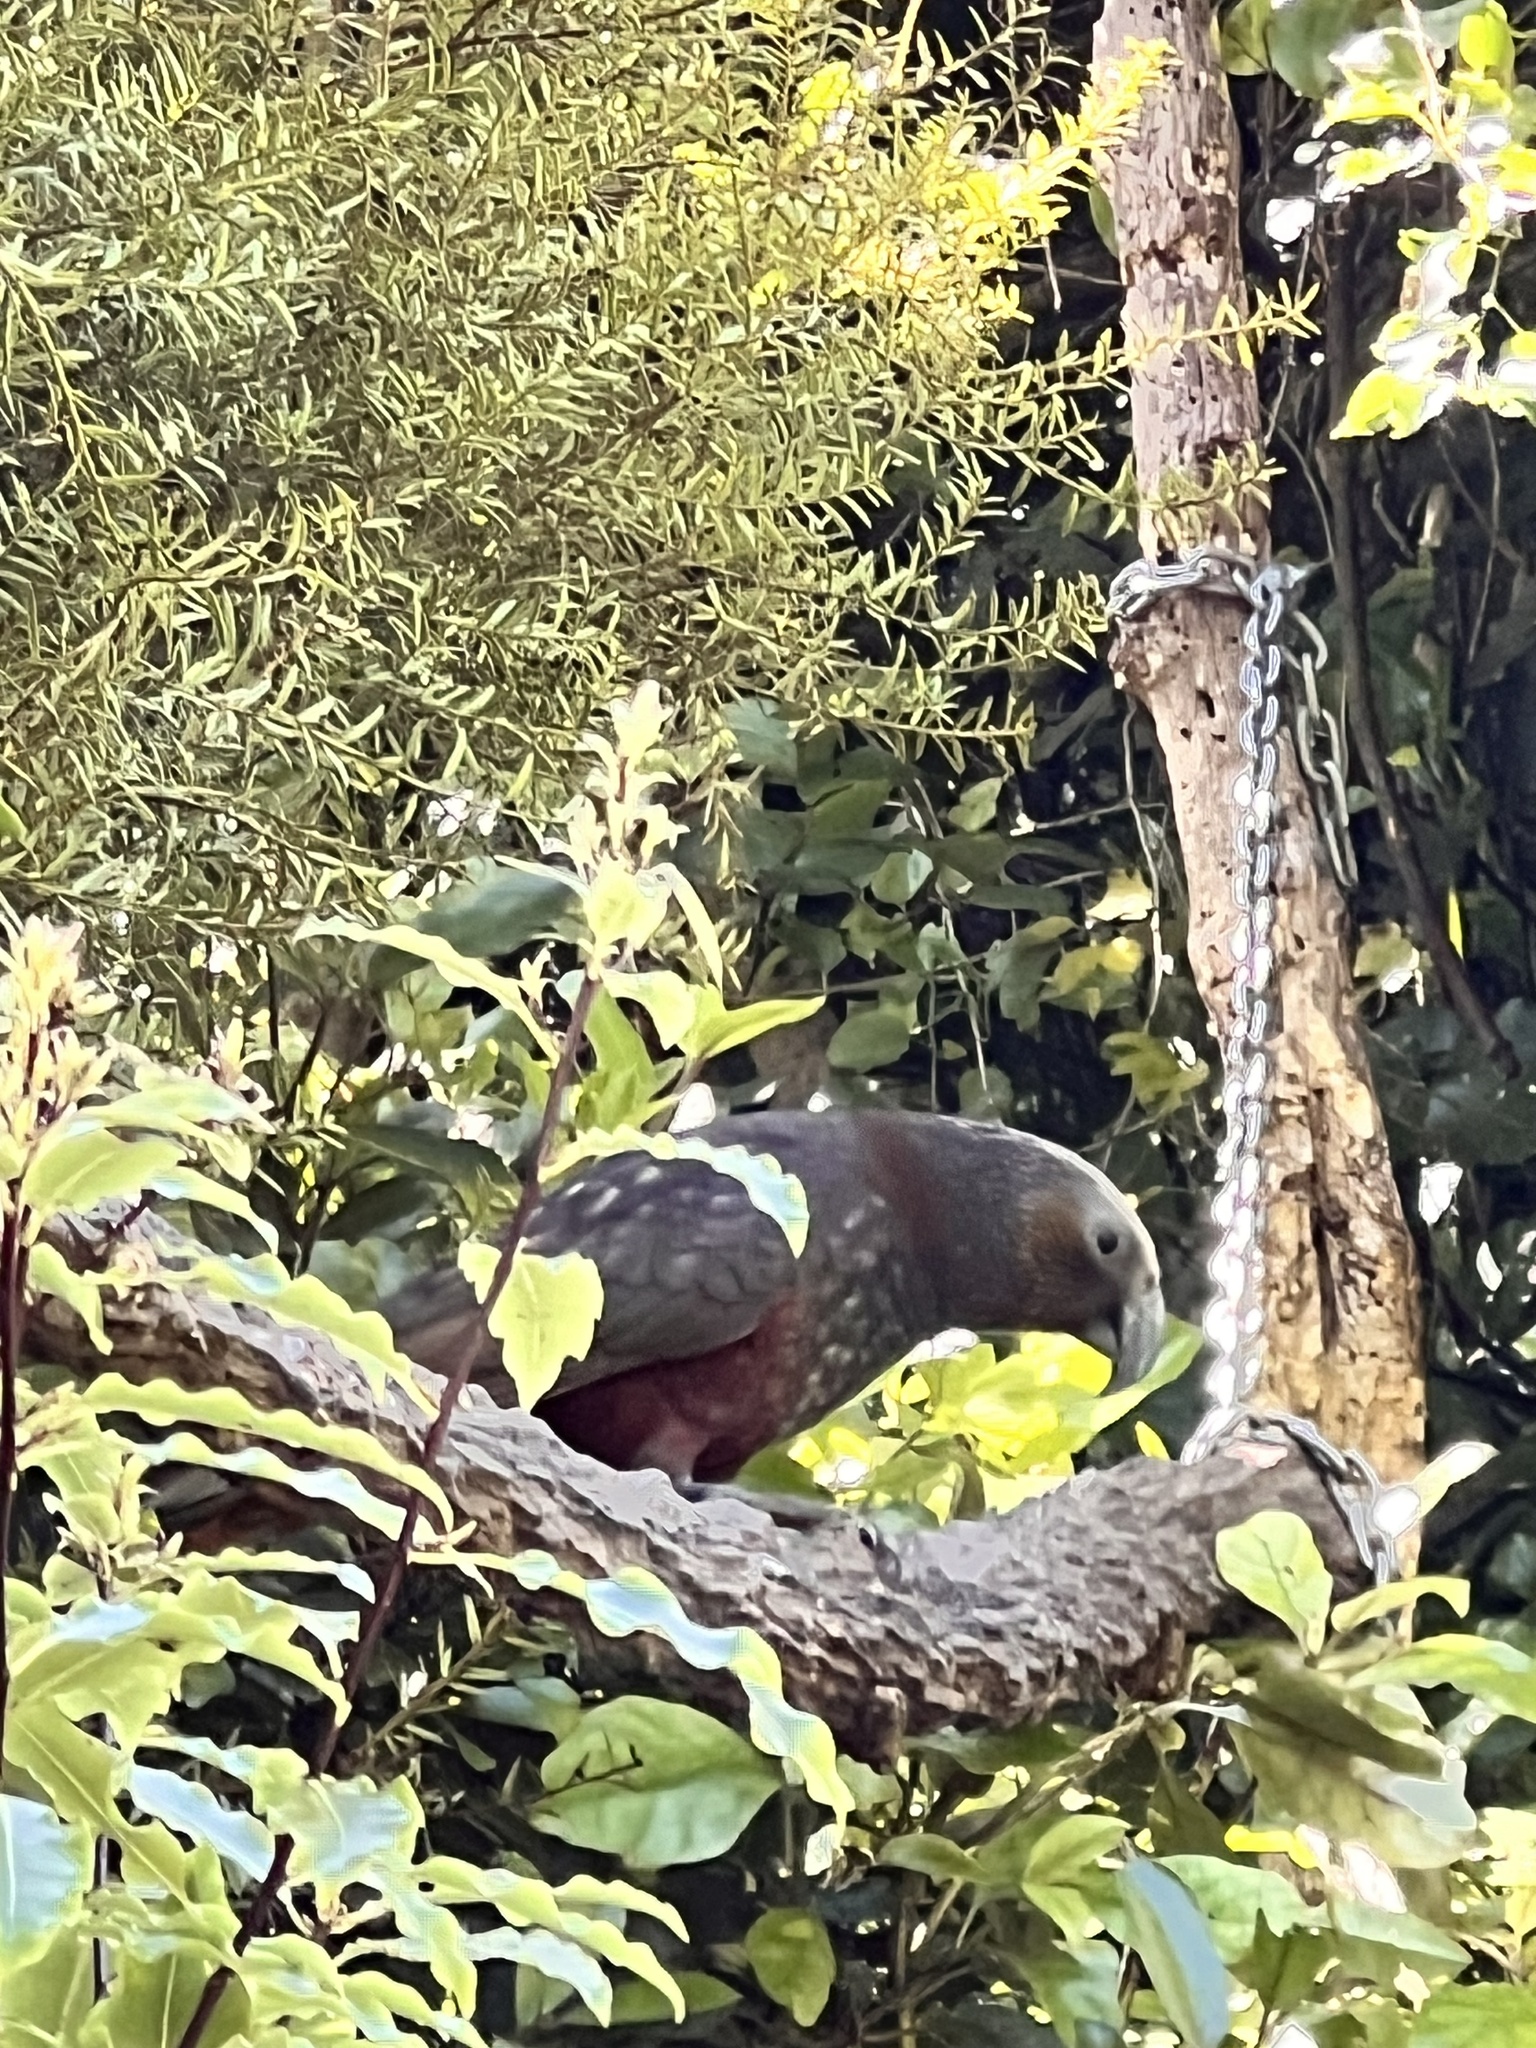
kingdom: Animalia
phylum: Chordata
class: Aves
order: Psittaciformes
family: Psittacidae
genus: Nestor
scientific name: Nestor meridionalis
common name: New zealand kaka
